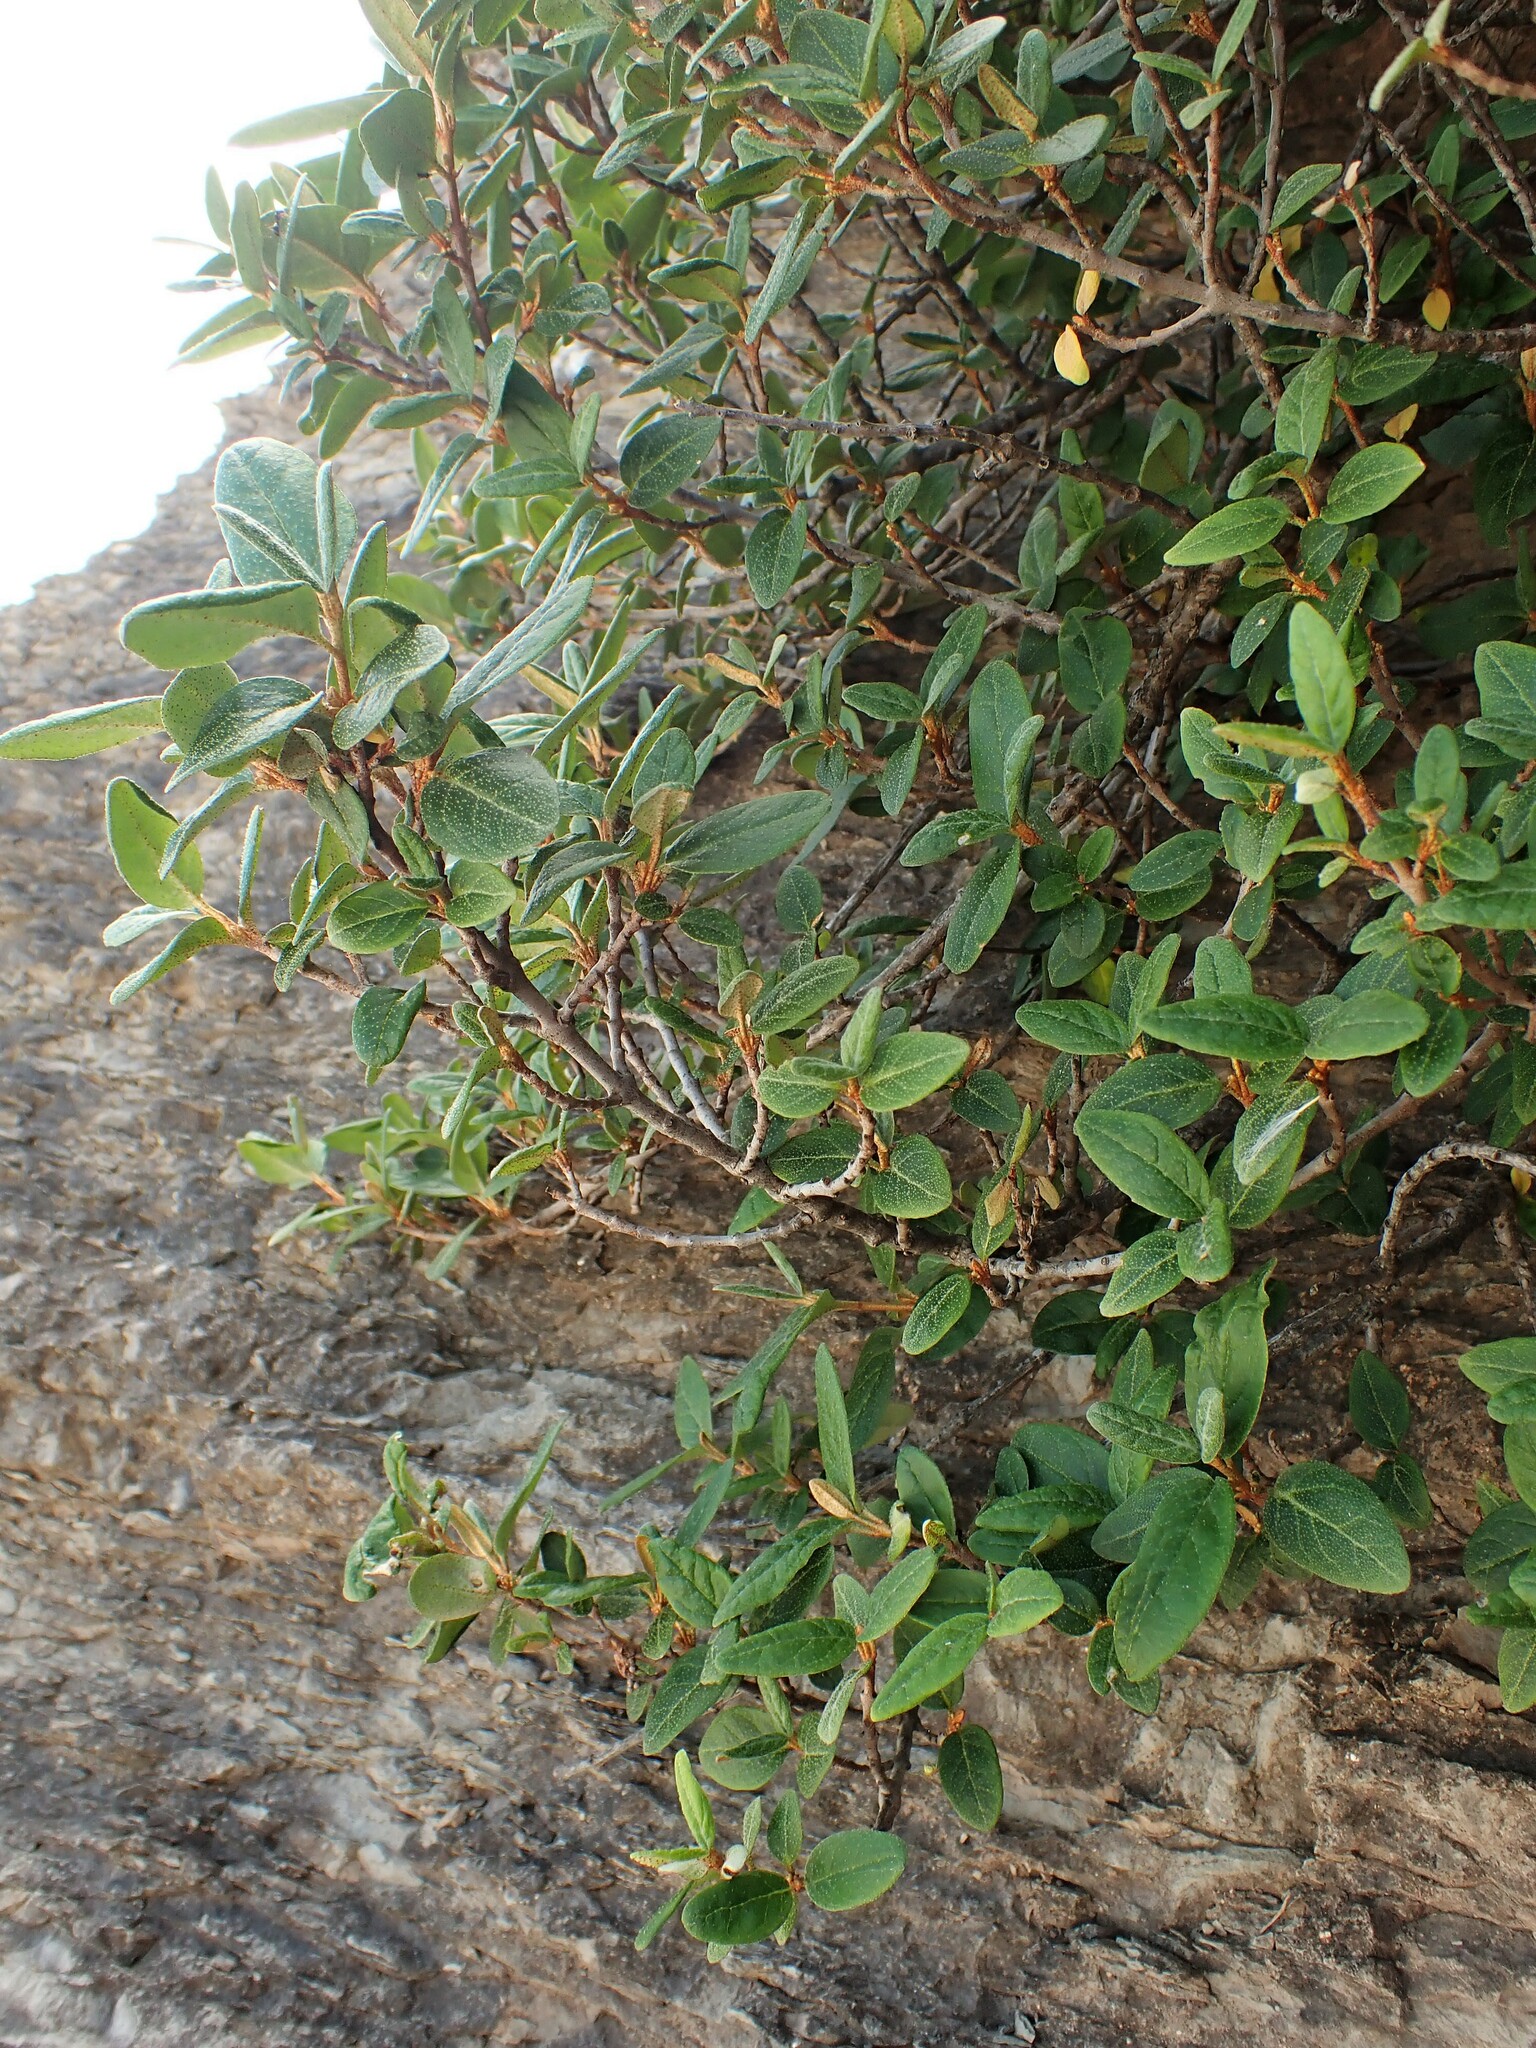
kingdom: Plantae
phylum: Tracheophyta
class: Magnoliopsida
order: Rosales
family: Elaeagnaceae
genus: Shepherdia
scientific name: Shepherdia canadensis
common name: Soapberry
